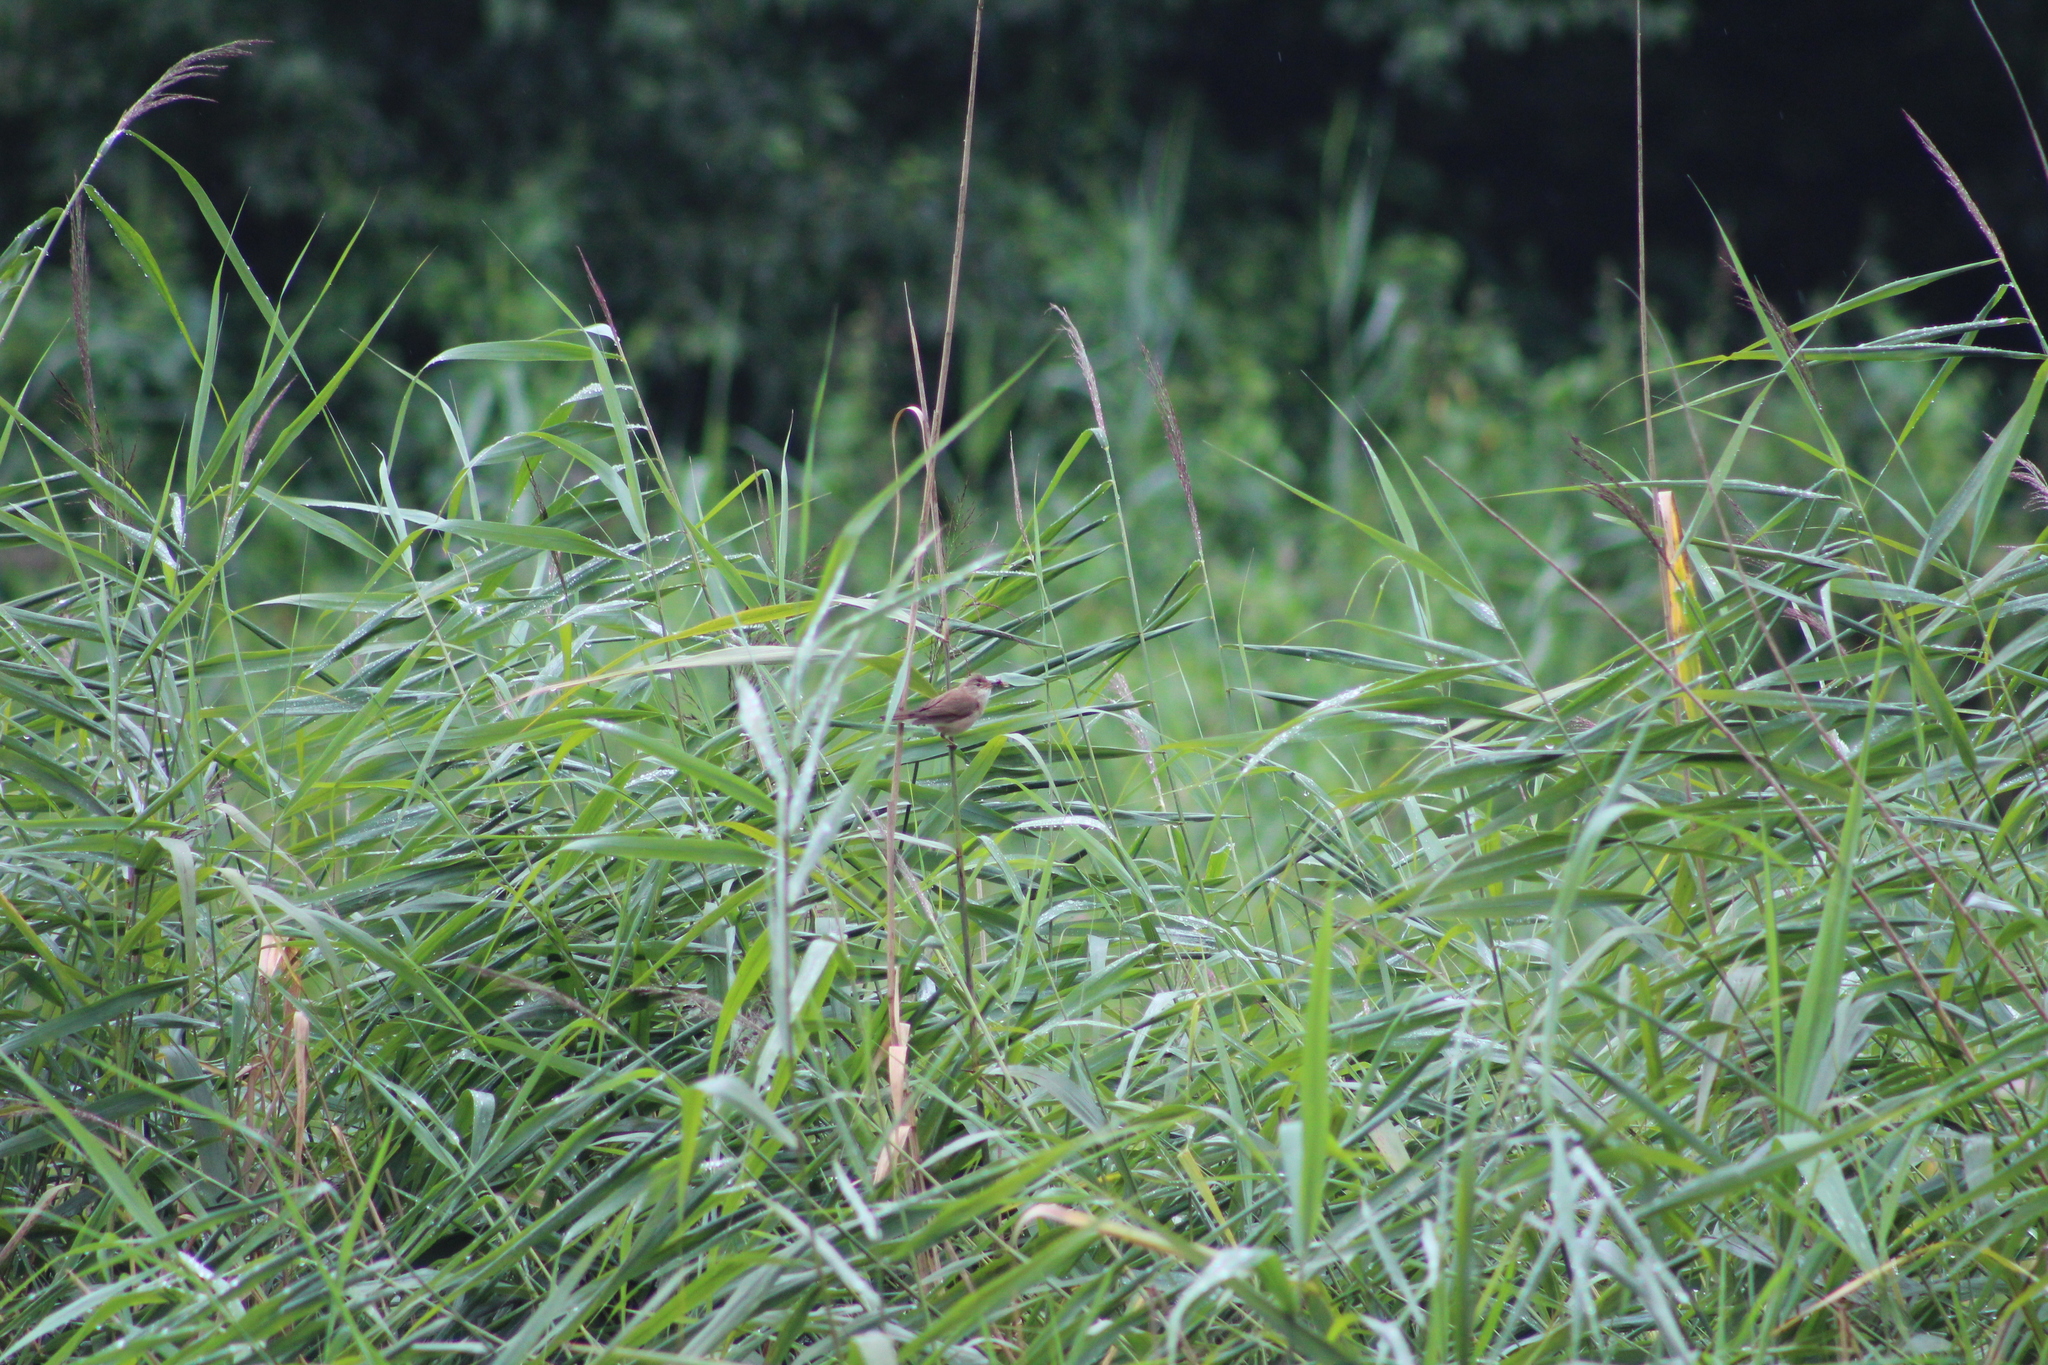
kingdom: Animalia
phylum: Chordata
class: Aves
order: Passeriformes
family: Acrocephalidae
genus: Acrocephalus
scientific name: Acrocephalus scirpaceus
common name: Eurasian reed warbler
